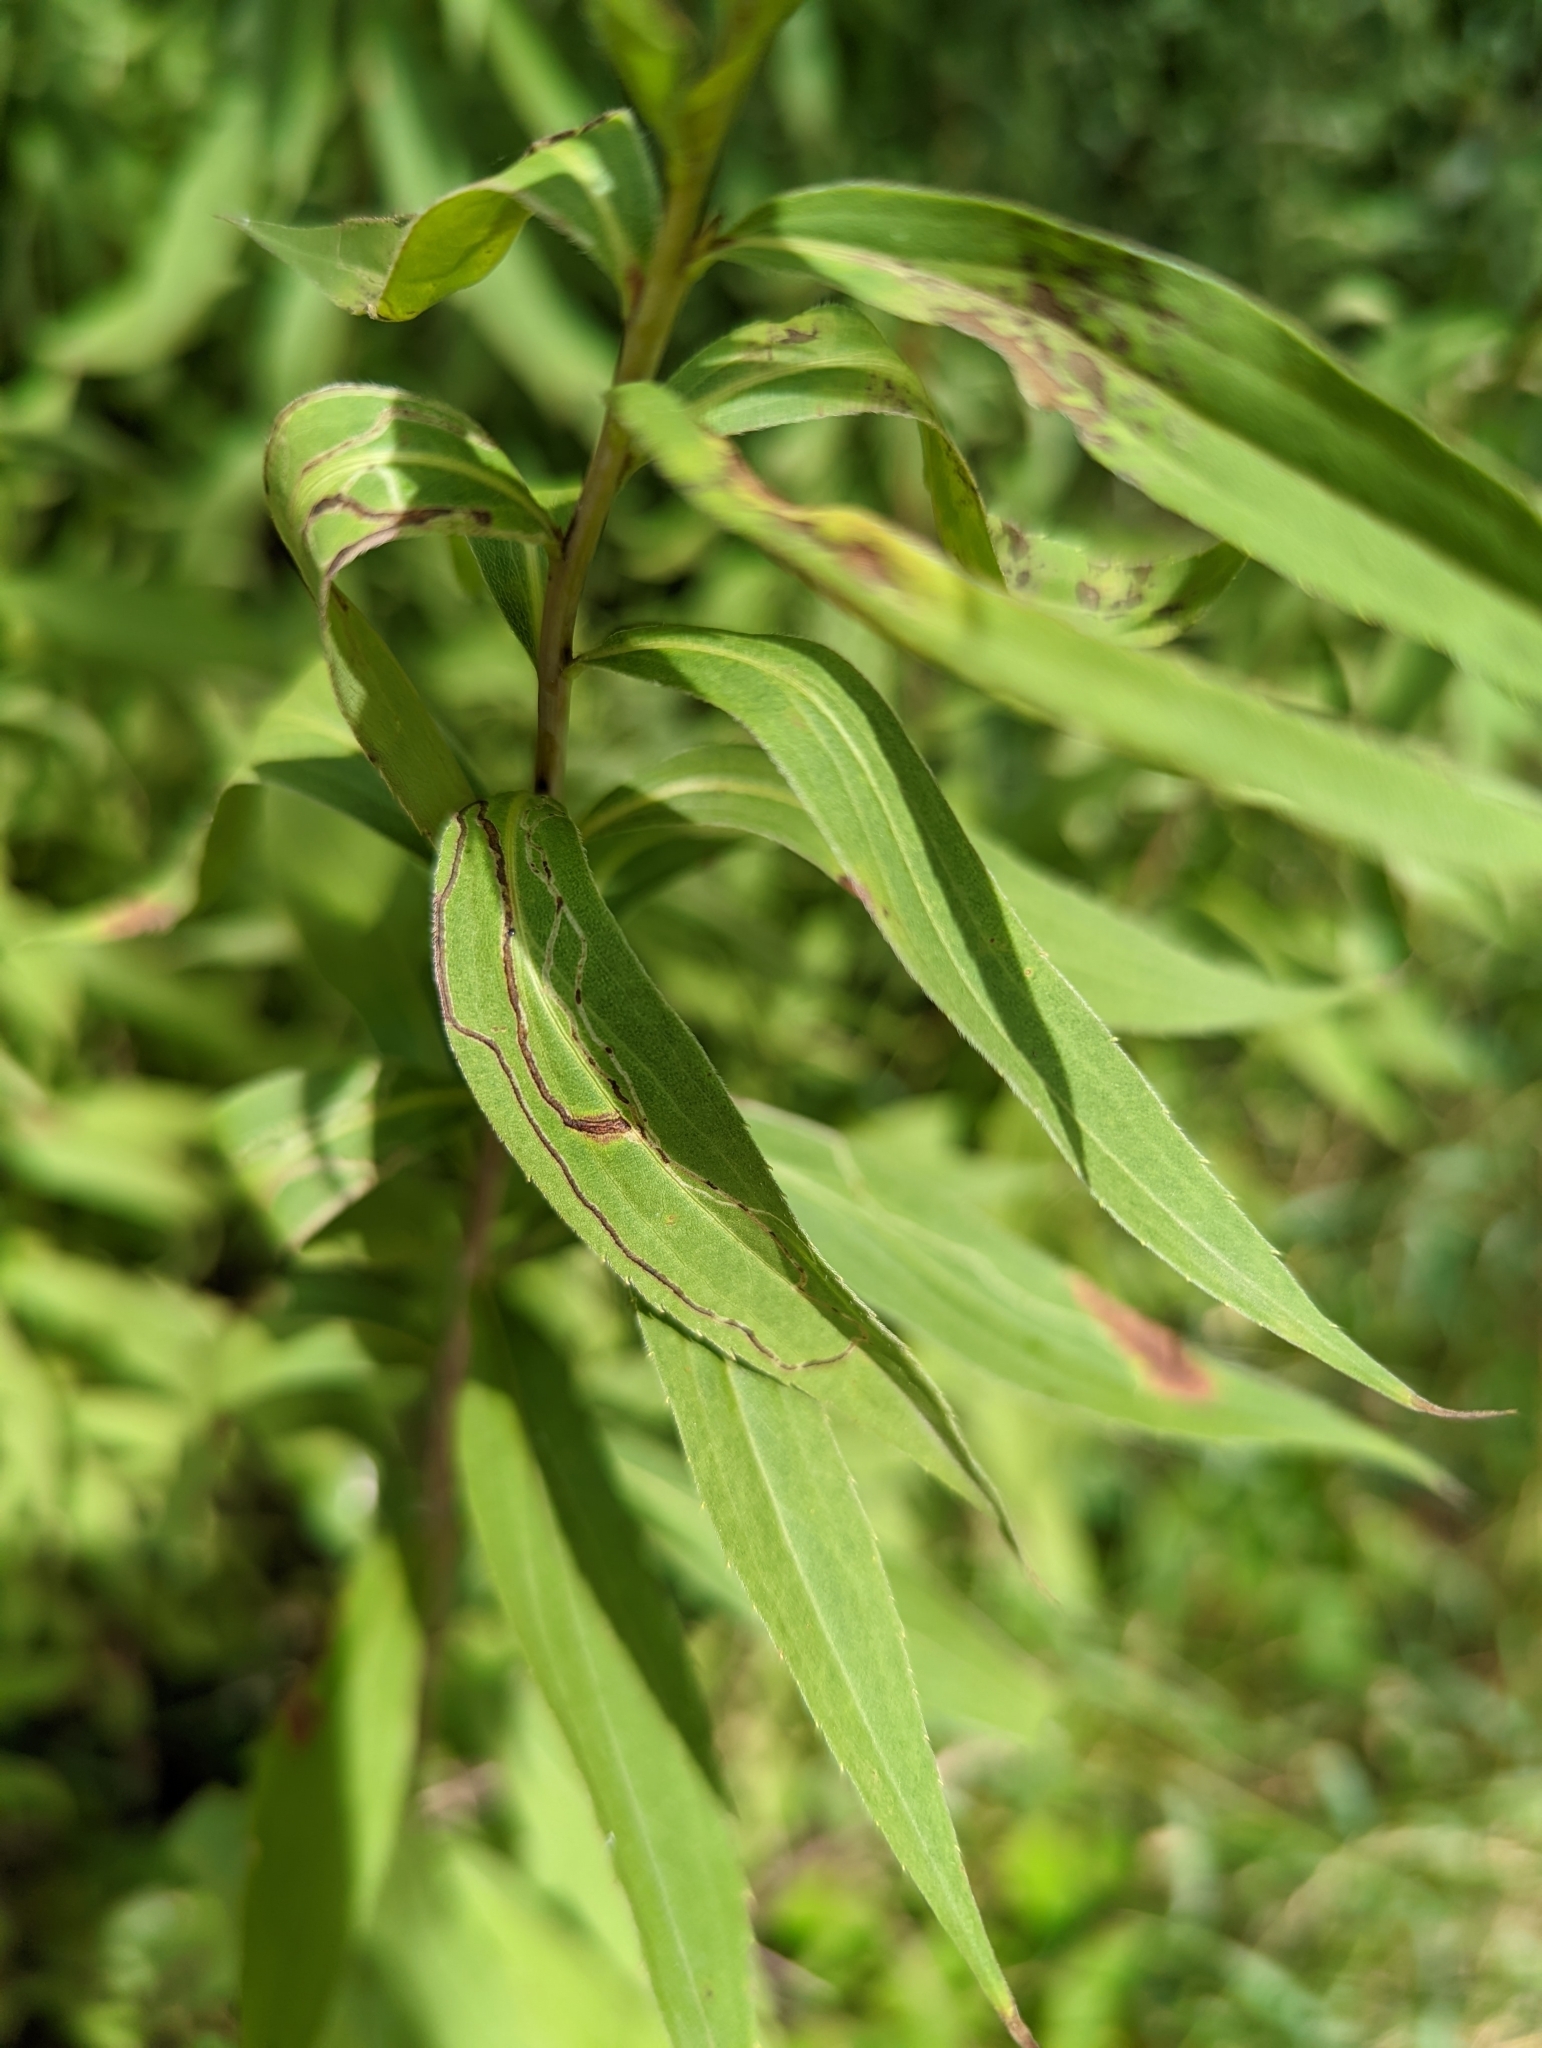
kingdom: Animalia
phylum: Arthropoda
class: Insecta
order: Diptera
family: Agromyzidae
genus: Ophiomyia
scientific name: Ophiomyia maura
